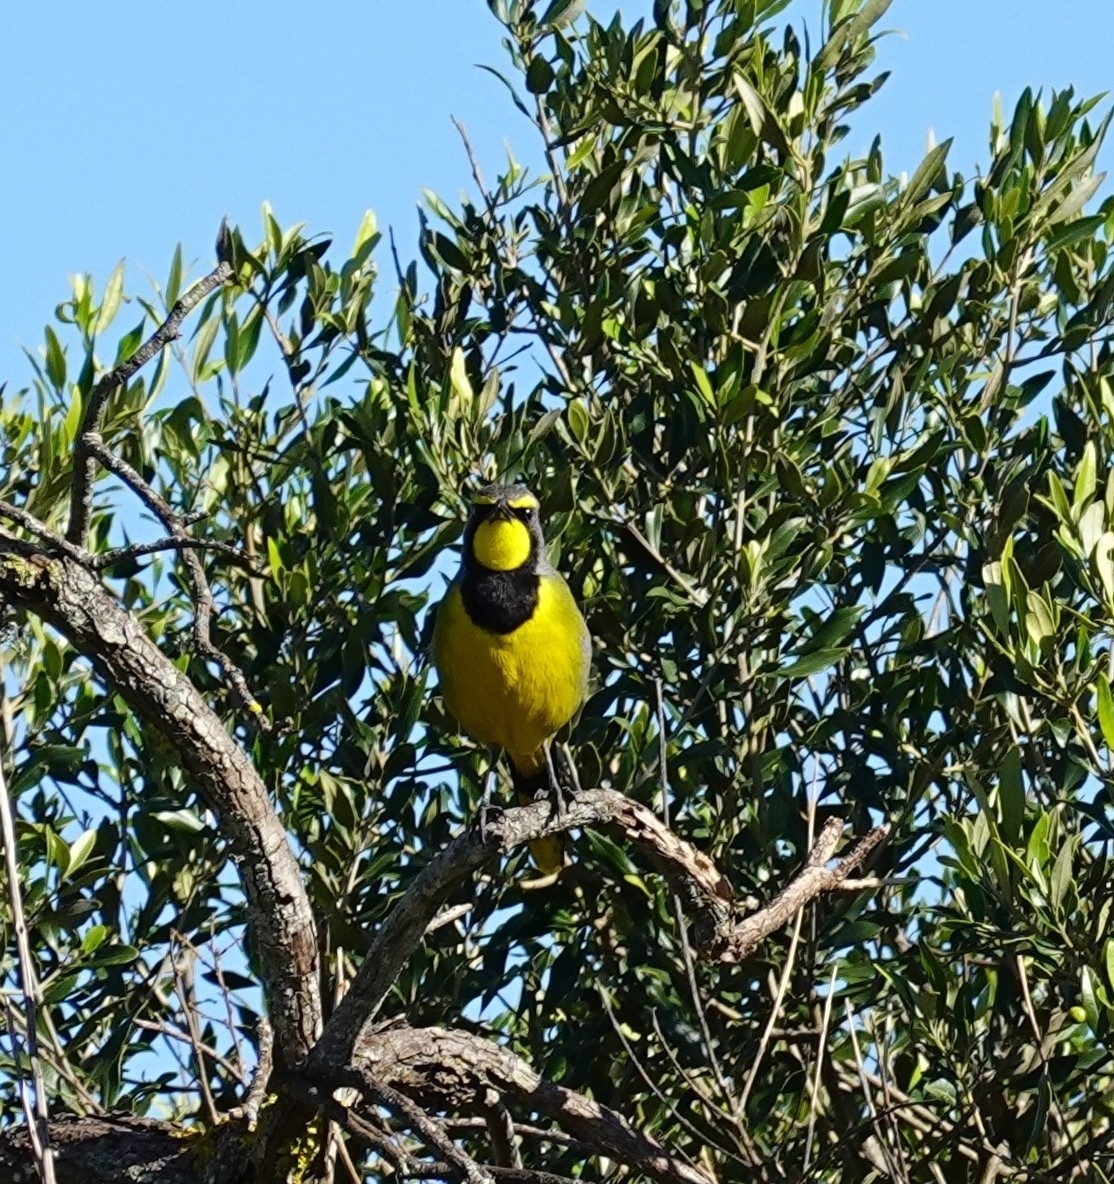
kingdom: Animalia
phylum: Chordata
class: Aves
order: Passeriformes
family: Malaconotidae
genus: Telophorus
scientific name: Telophorus zeylonus
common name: Bokmakierie
